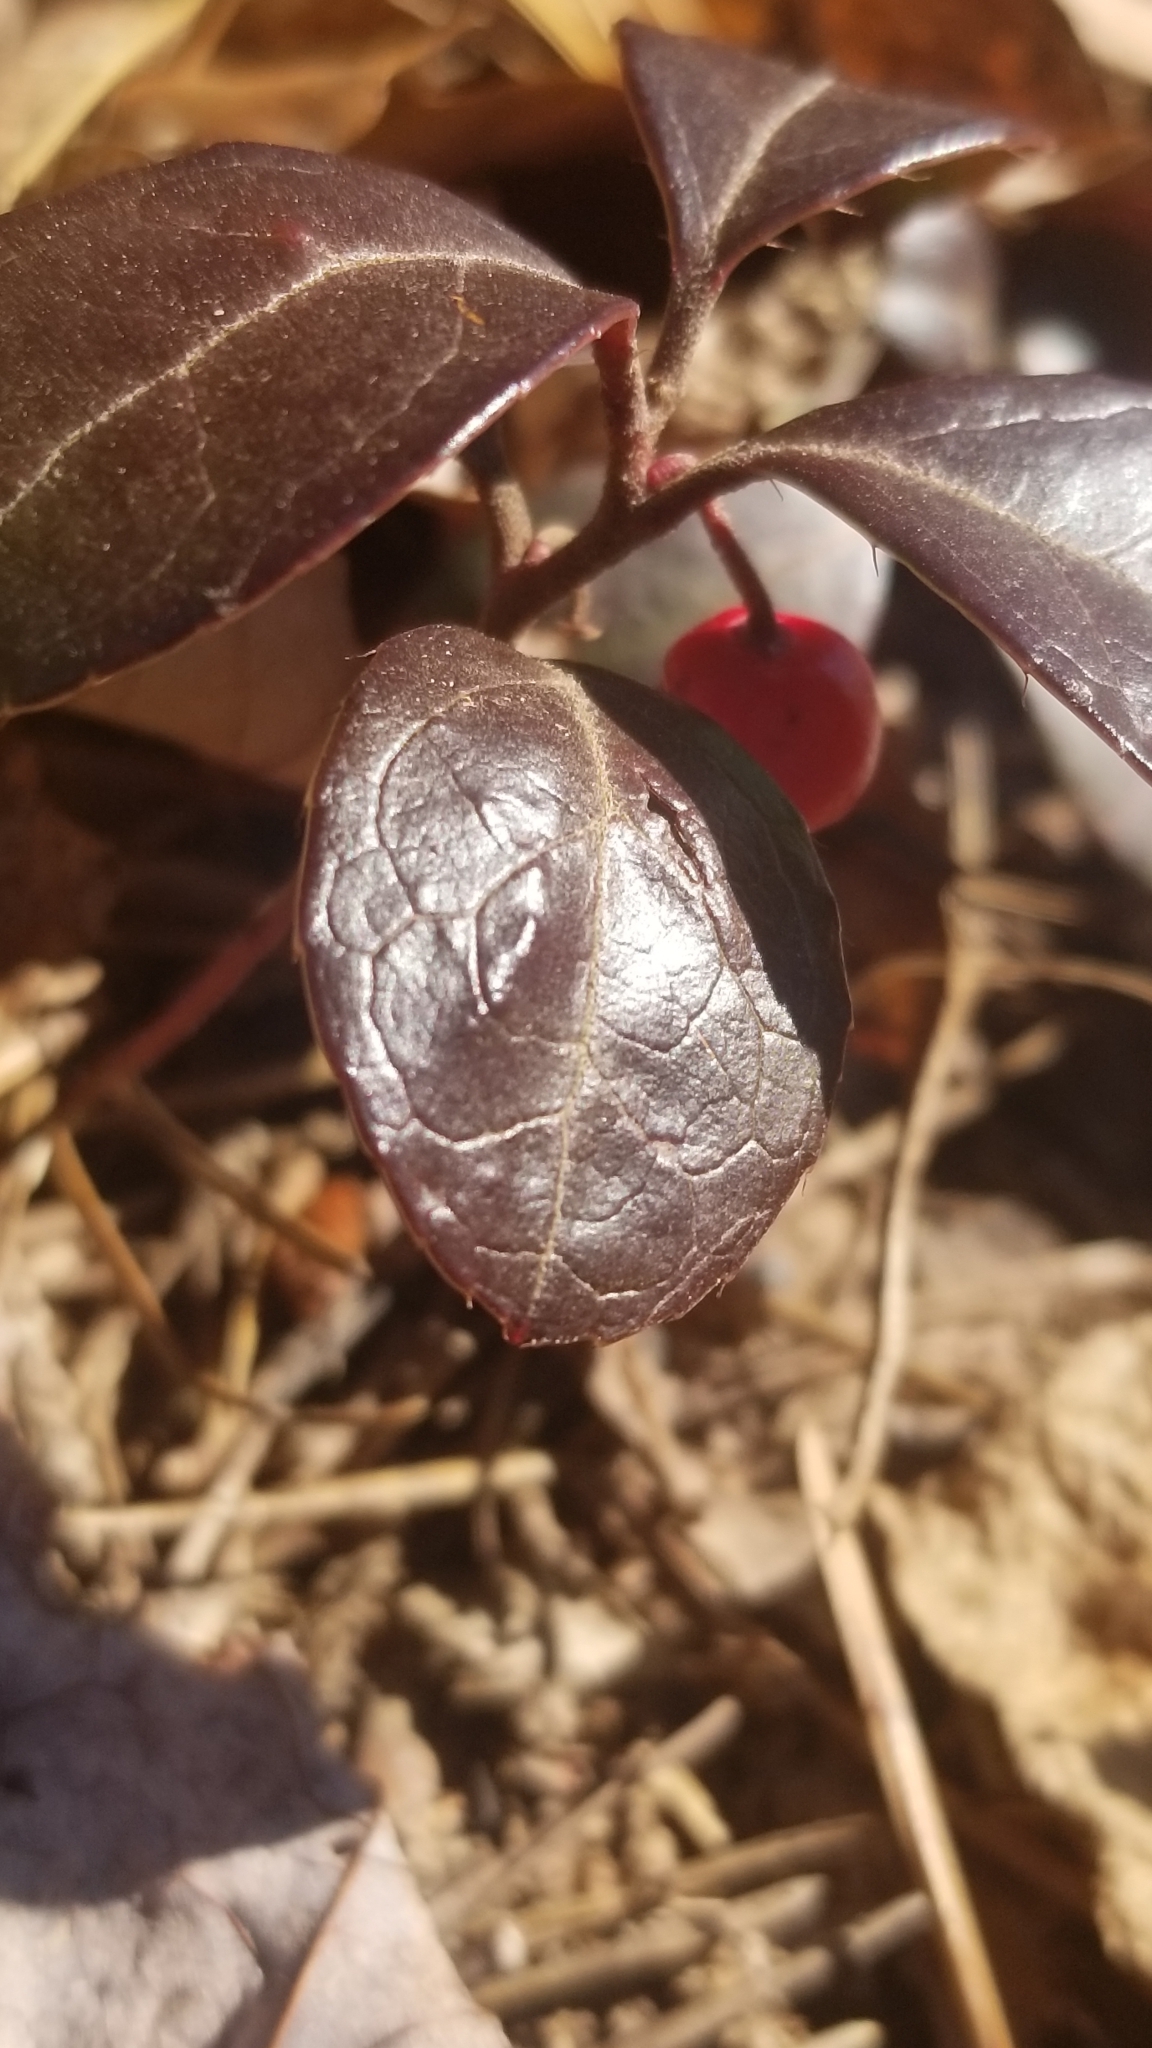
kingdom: Plantae
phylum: Tracheophyta
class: Magnoliopsida
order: Ericales
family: Ericaceae
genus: Gaultheria
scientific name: Gaultheria procumbens
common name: Checkerberry
